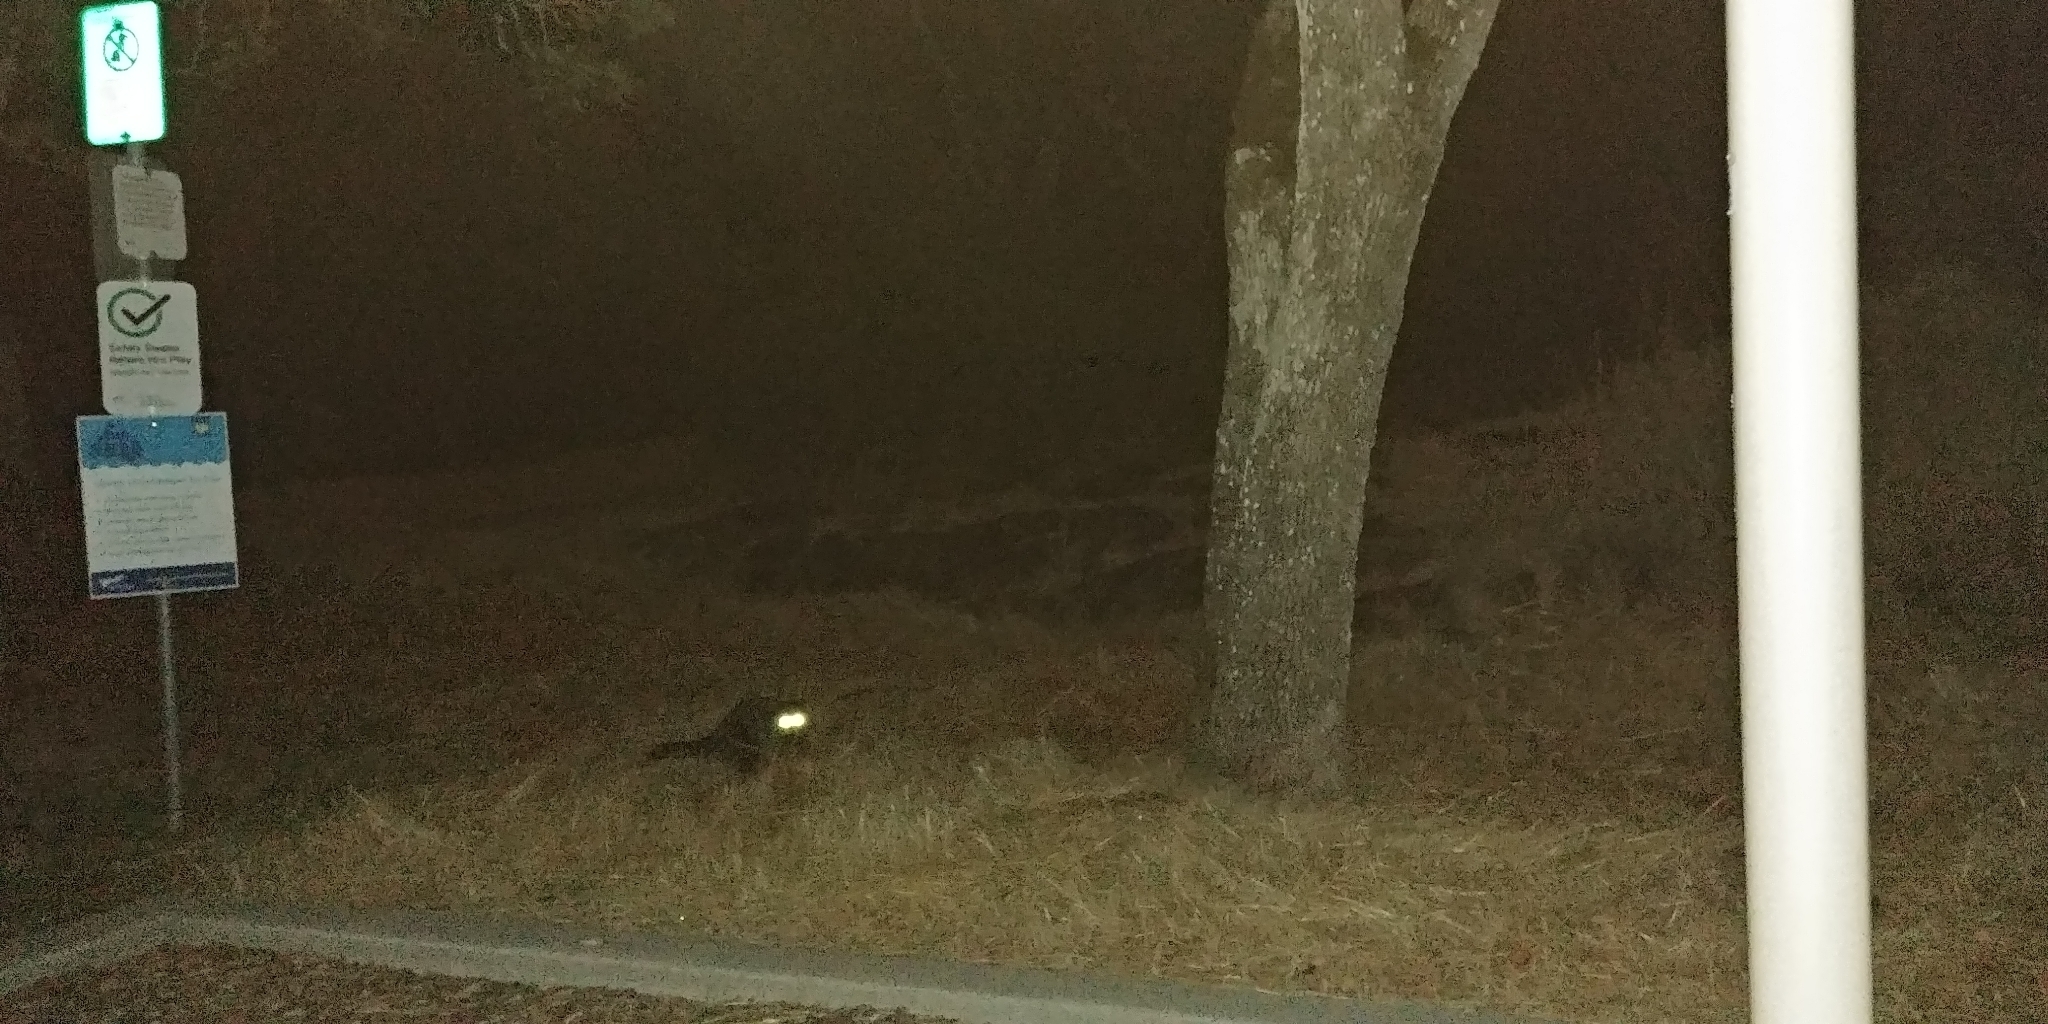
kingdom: Animalia
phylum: Chordata
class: Mammalia
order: Carnivora
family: Procyonidae
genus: Procyon
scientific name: Procyon lotor
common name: Raccoon
